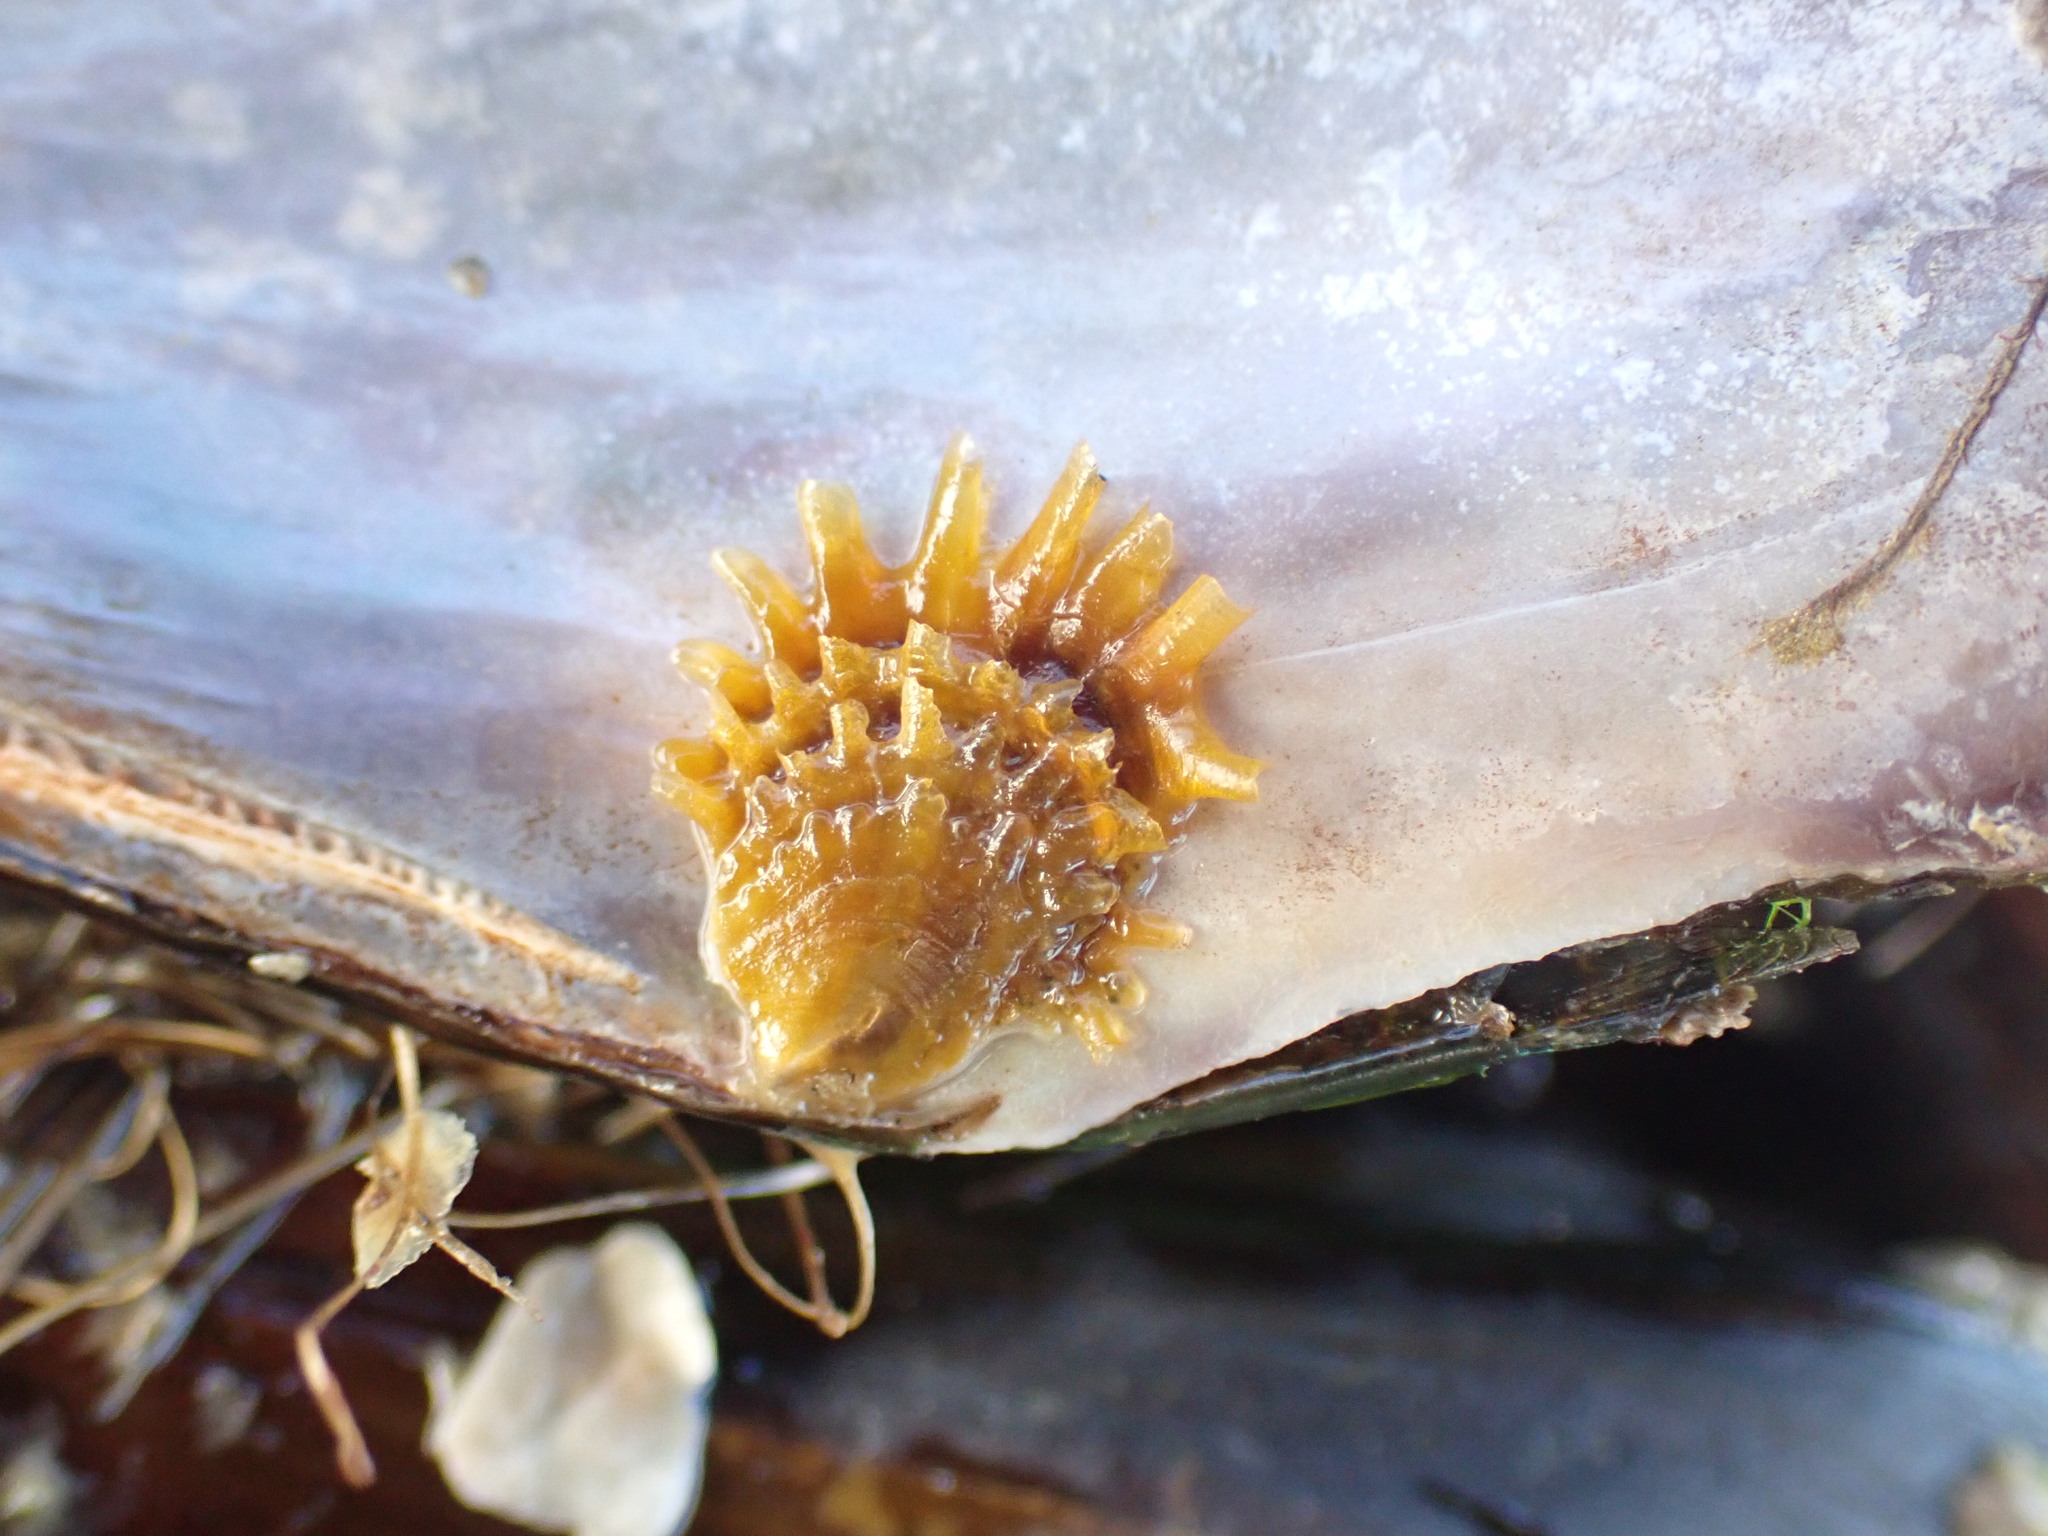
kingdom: Animalia
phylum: Mollusca
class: Bivalvia
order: Ostreida
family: Ostreidae
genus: Magallana
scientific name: Magallana gigas
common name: Pacific oyster
